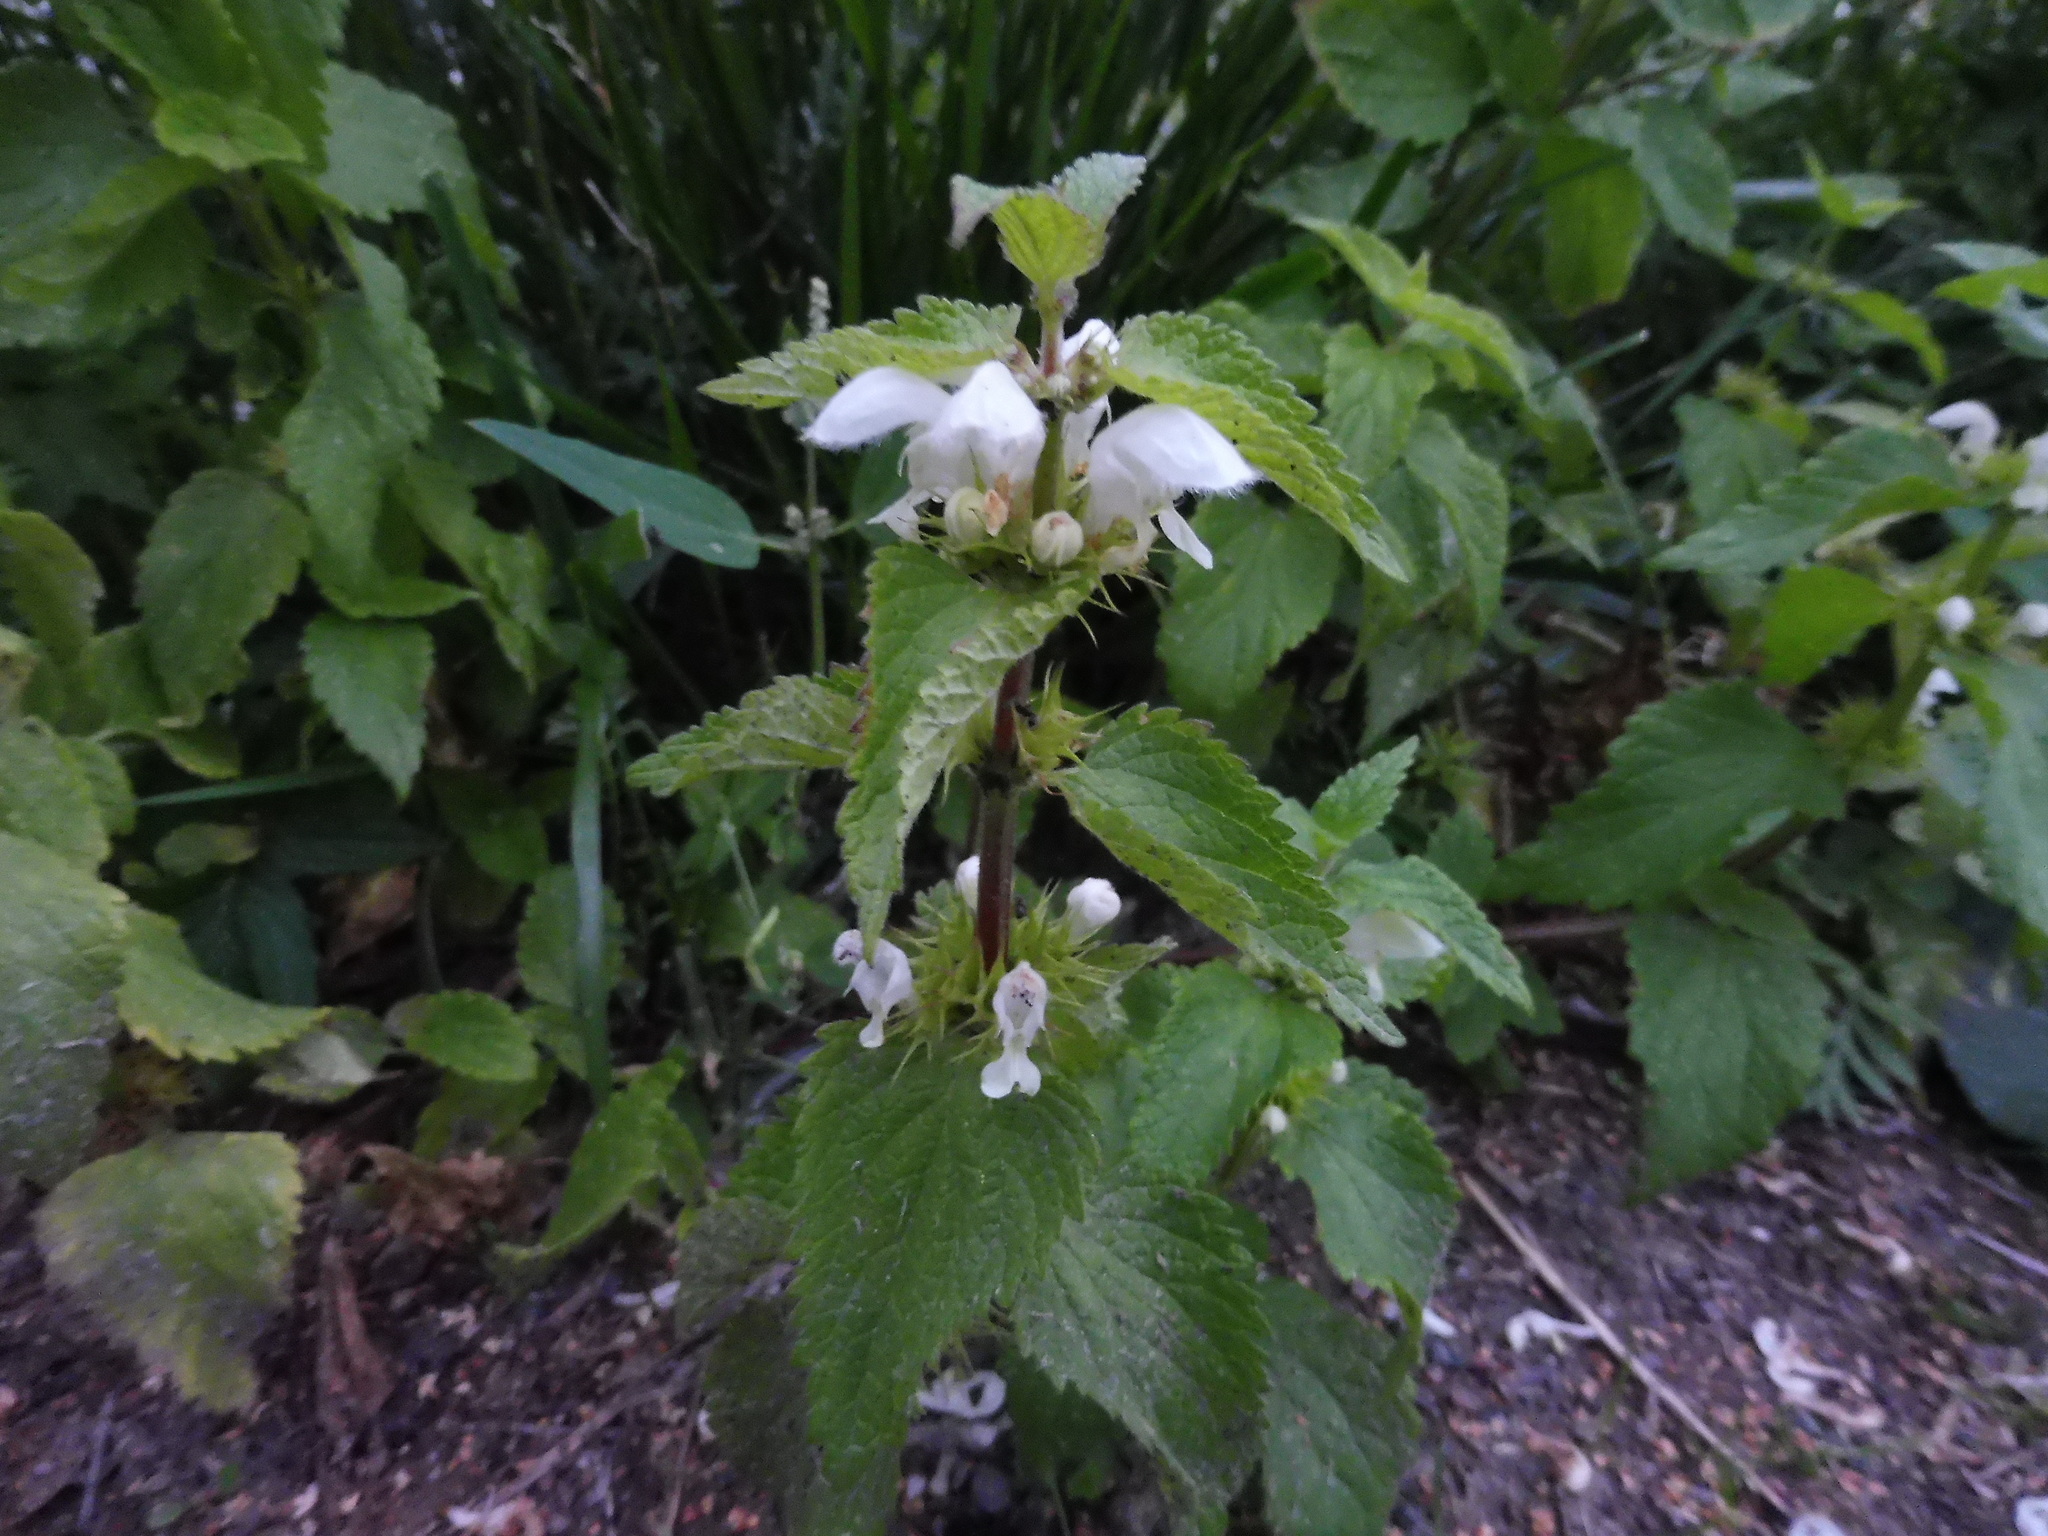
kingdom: Plantae
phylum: Tracheophyta
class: Magnoliopsida
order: Lamiales
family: Lamiaceae
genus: Lamium
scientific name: Lamium album
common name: White dead-nettle
